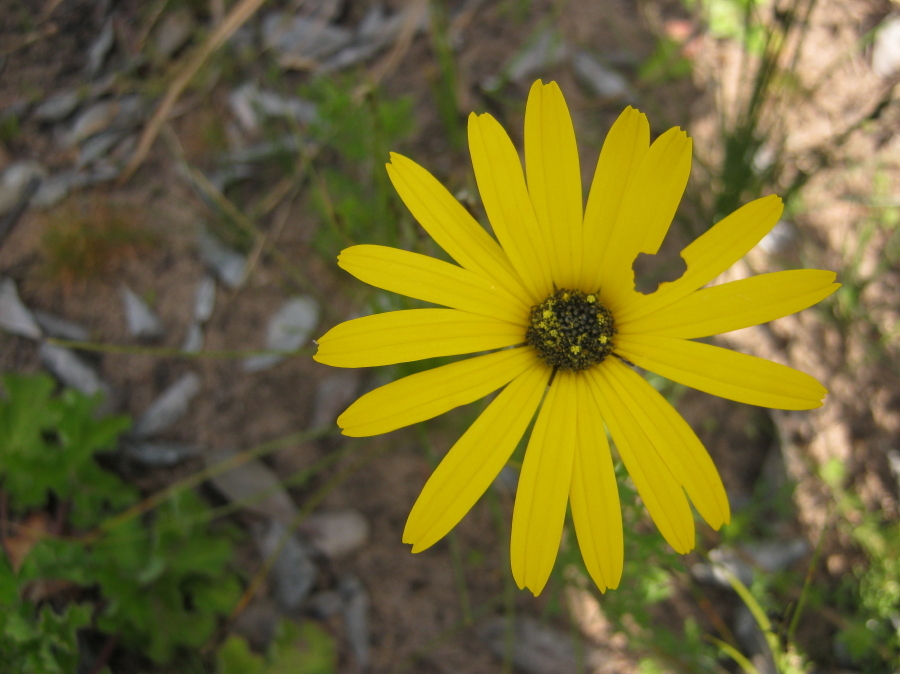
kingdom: Plantae
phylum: Tracheophyta
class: Magnoliopsida
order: Asterales
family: Asteraceae
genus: Ursinia
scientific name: Ursinia anthemoides
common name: Ursinia
